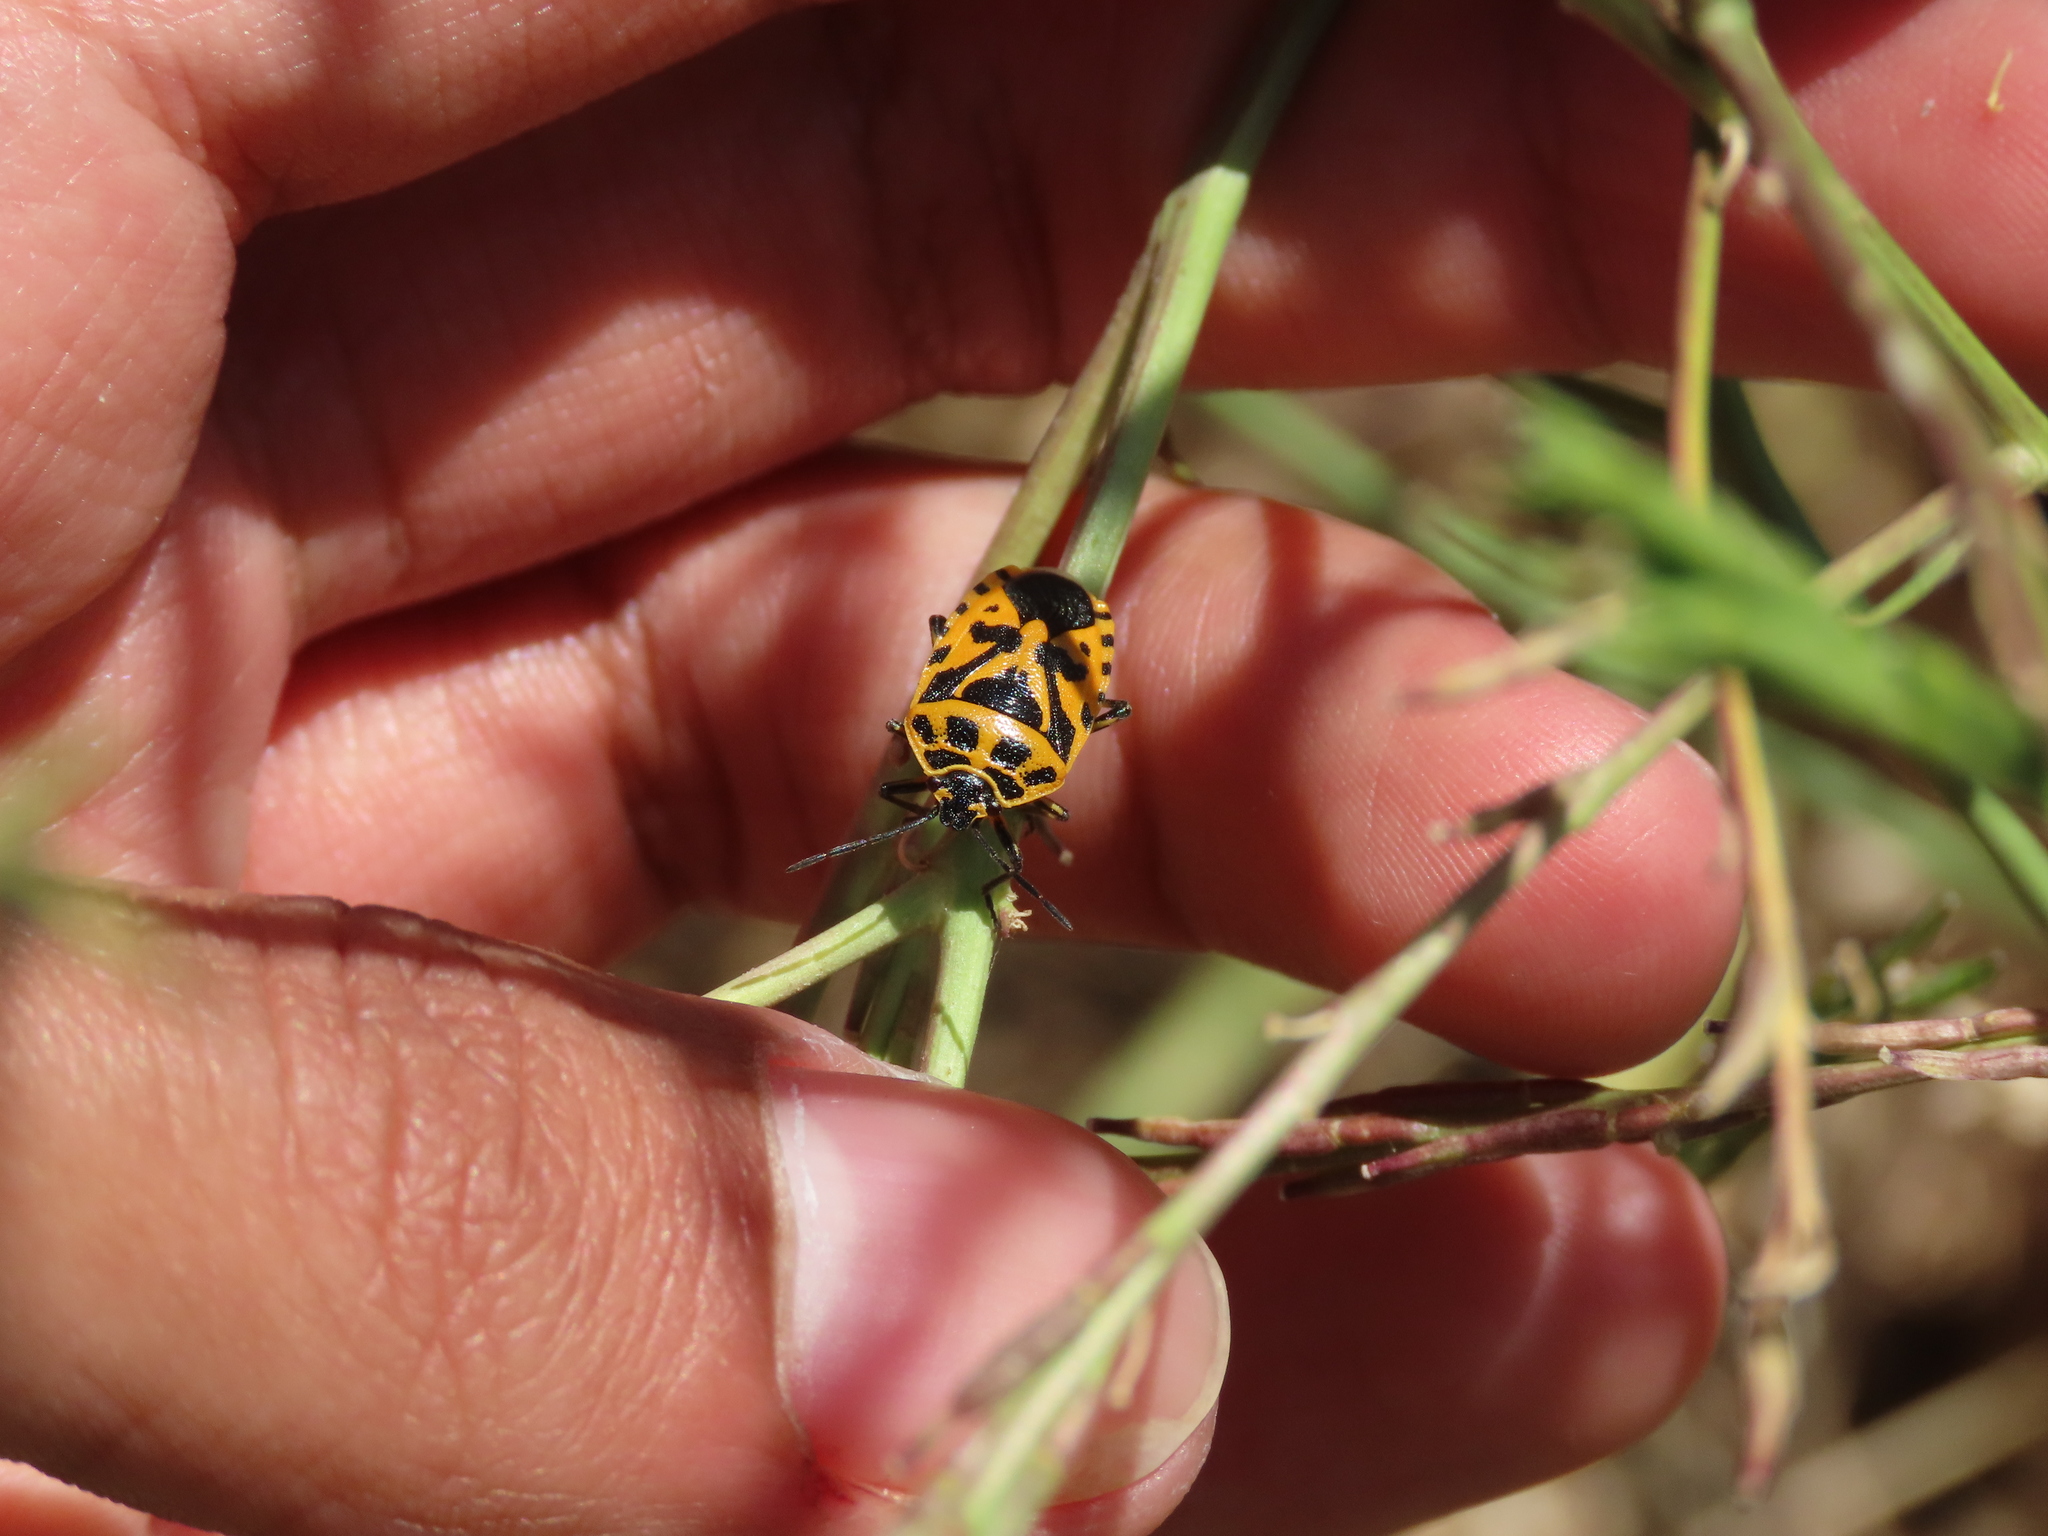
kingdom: Animalia
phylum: Arthropoda
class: Insecta
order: Hemiptera
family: Pentatomidae
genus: Eurydema
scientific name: Eurydema ventralis
